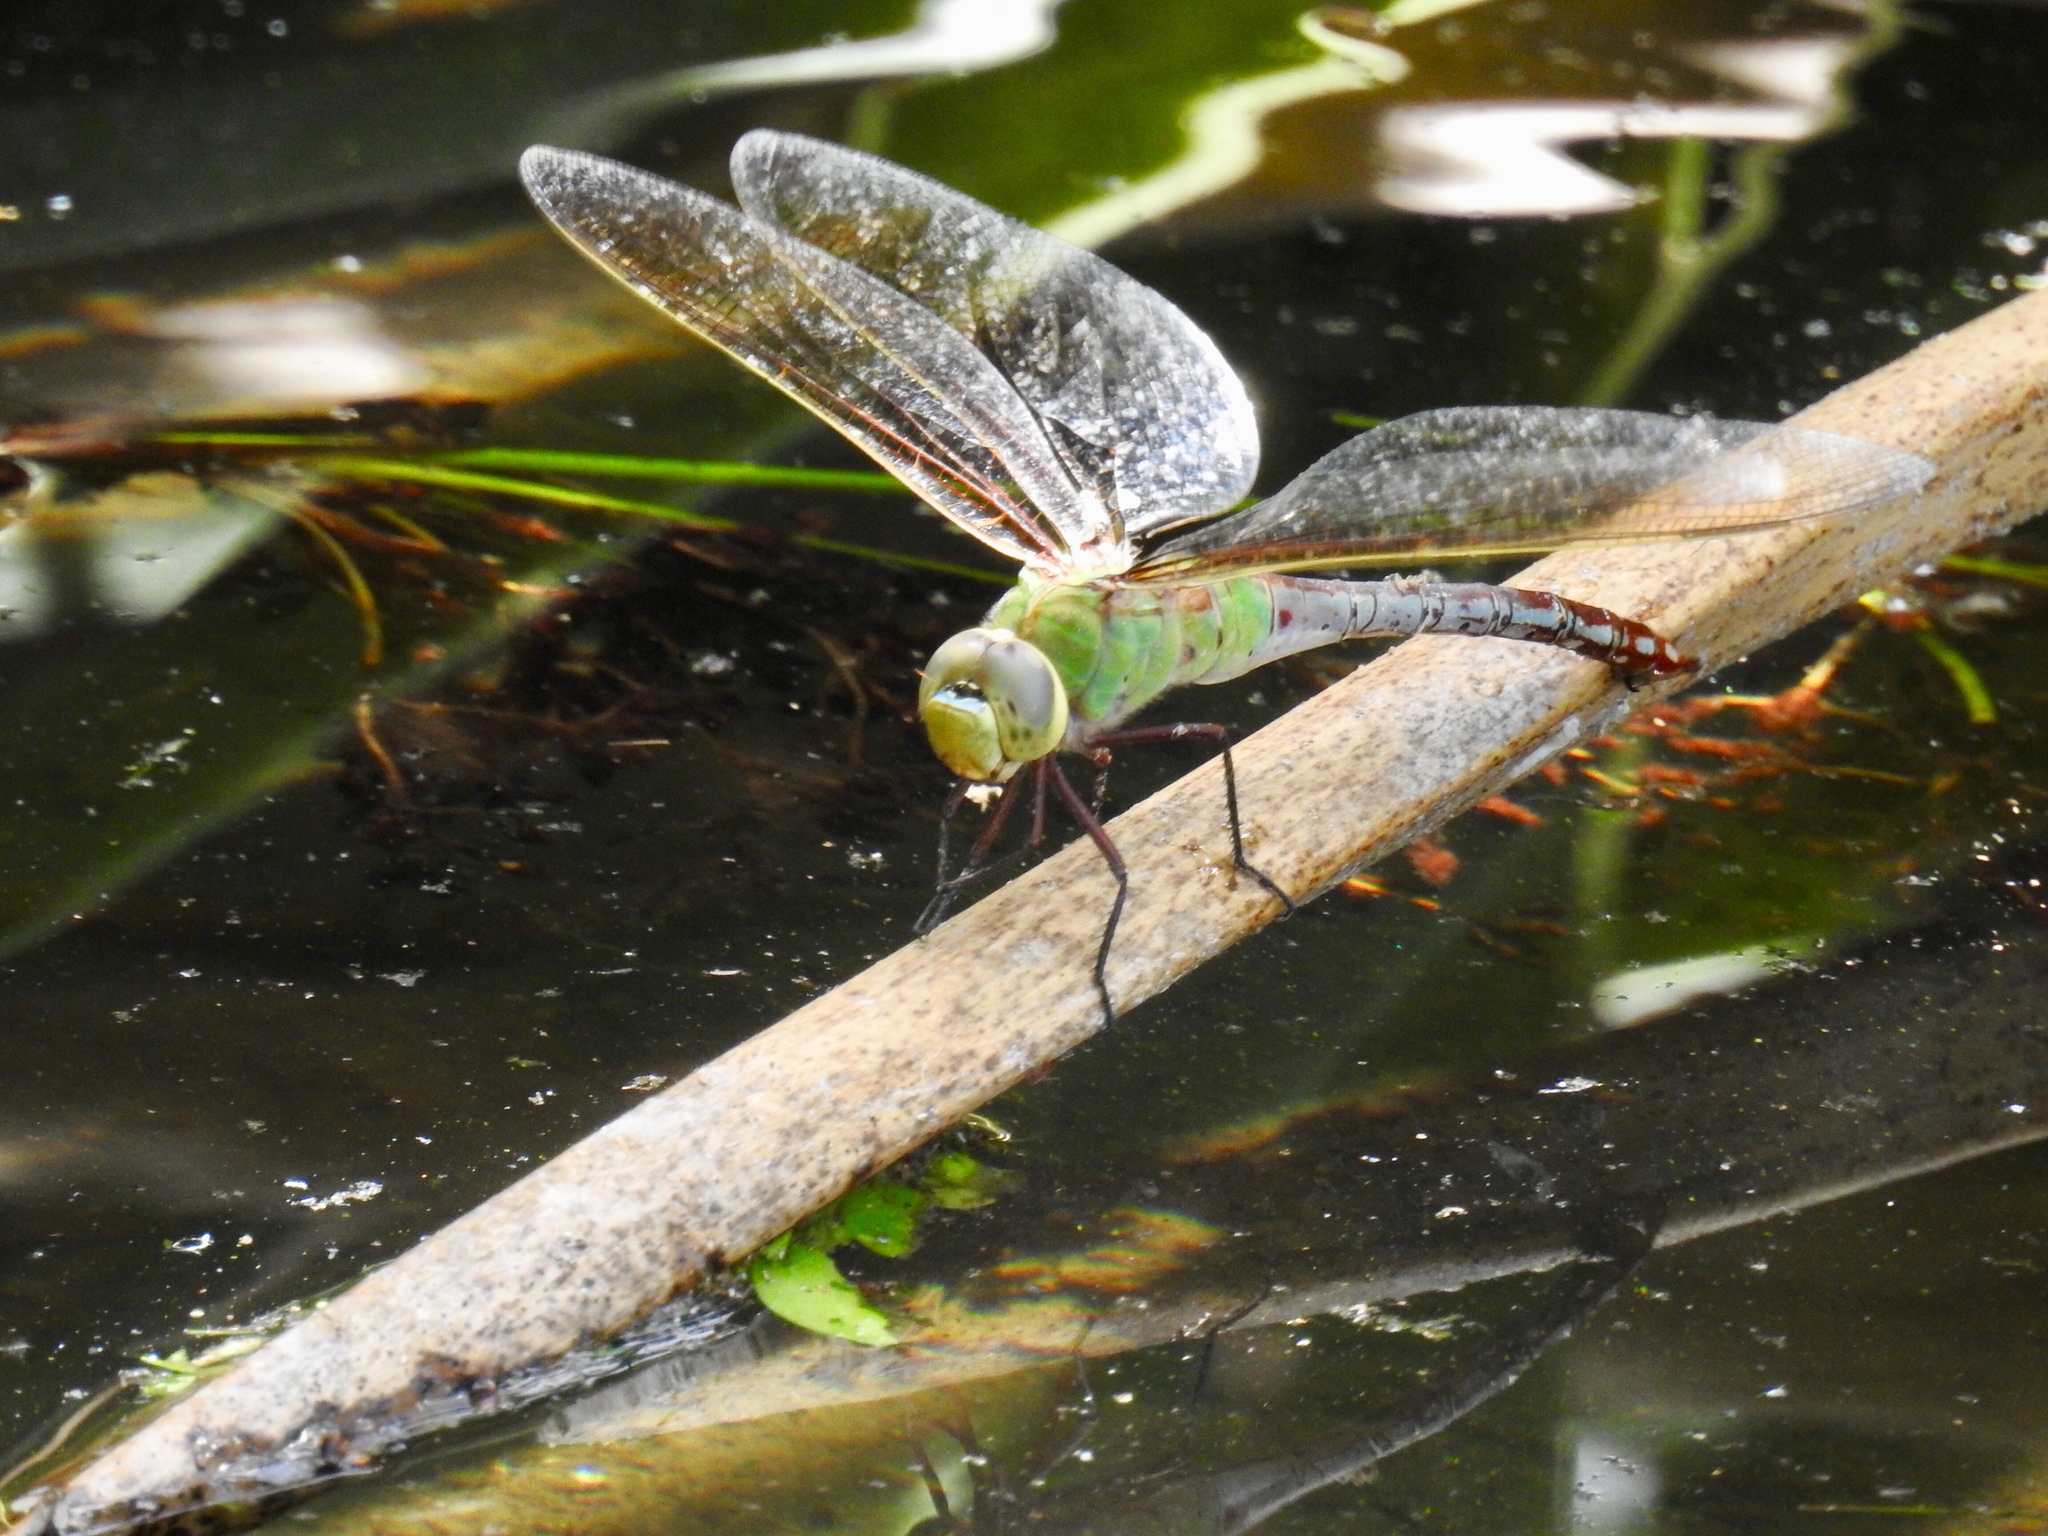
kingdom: Animalia
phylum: Arthropoda
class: Insecta
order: Odonata
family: Aeshnidae
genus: Anax
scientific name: Anax junius
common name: Common green darner
